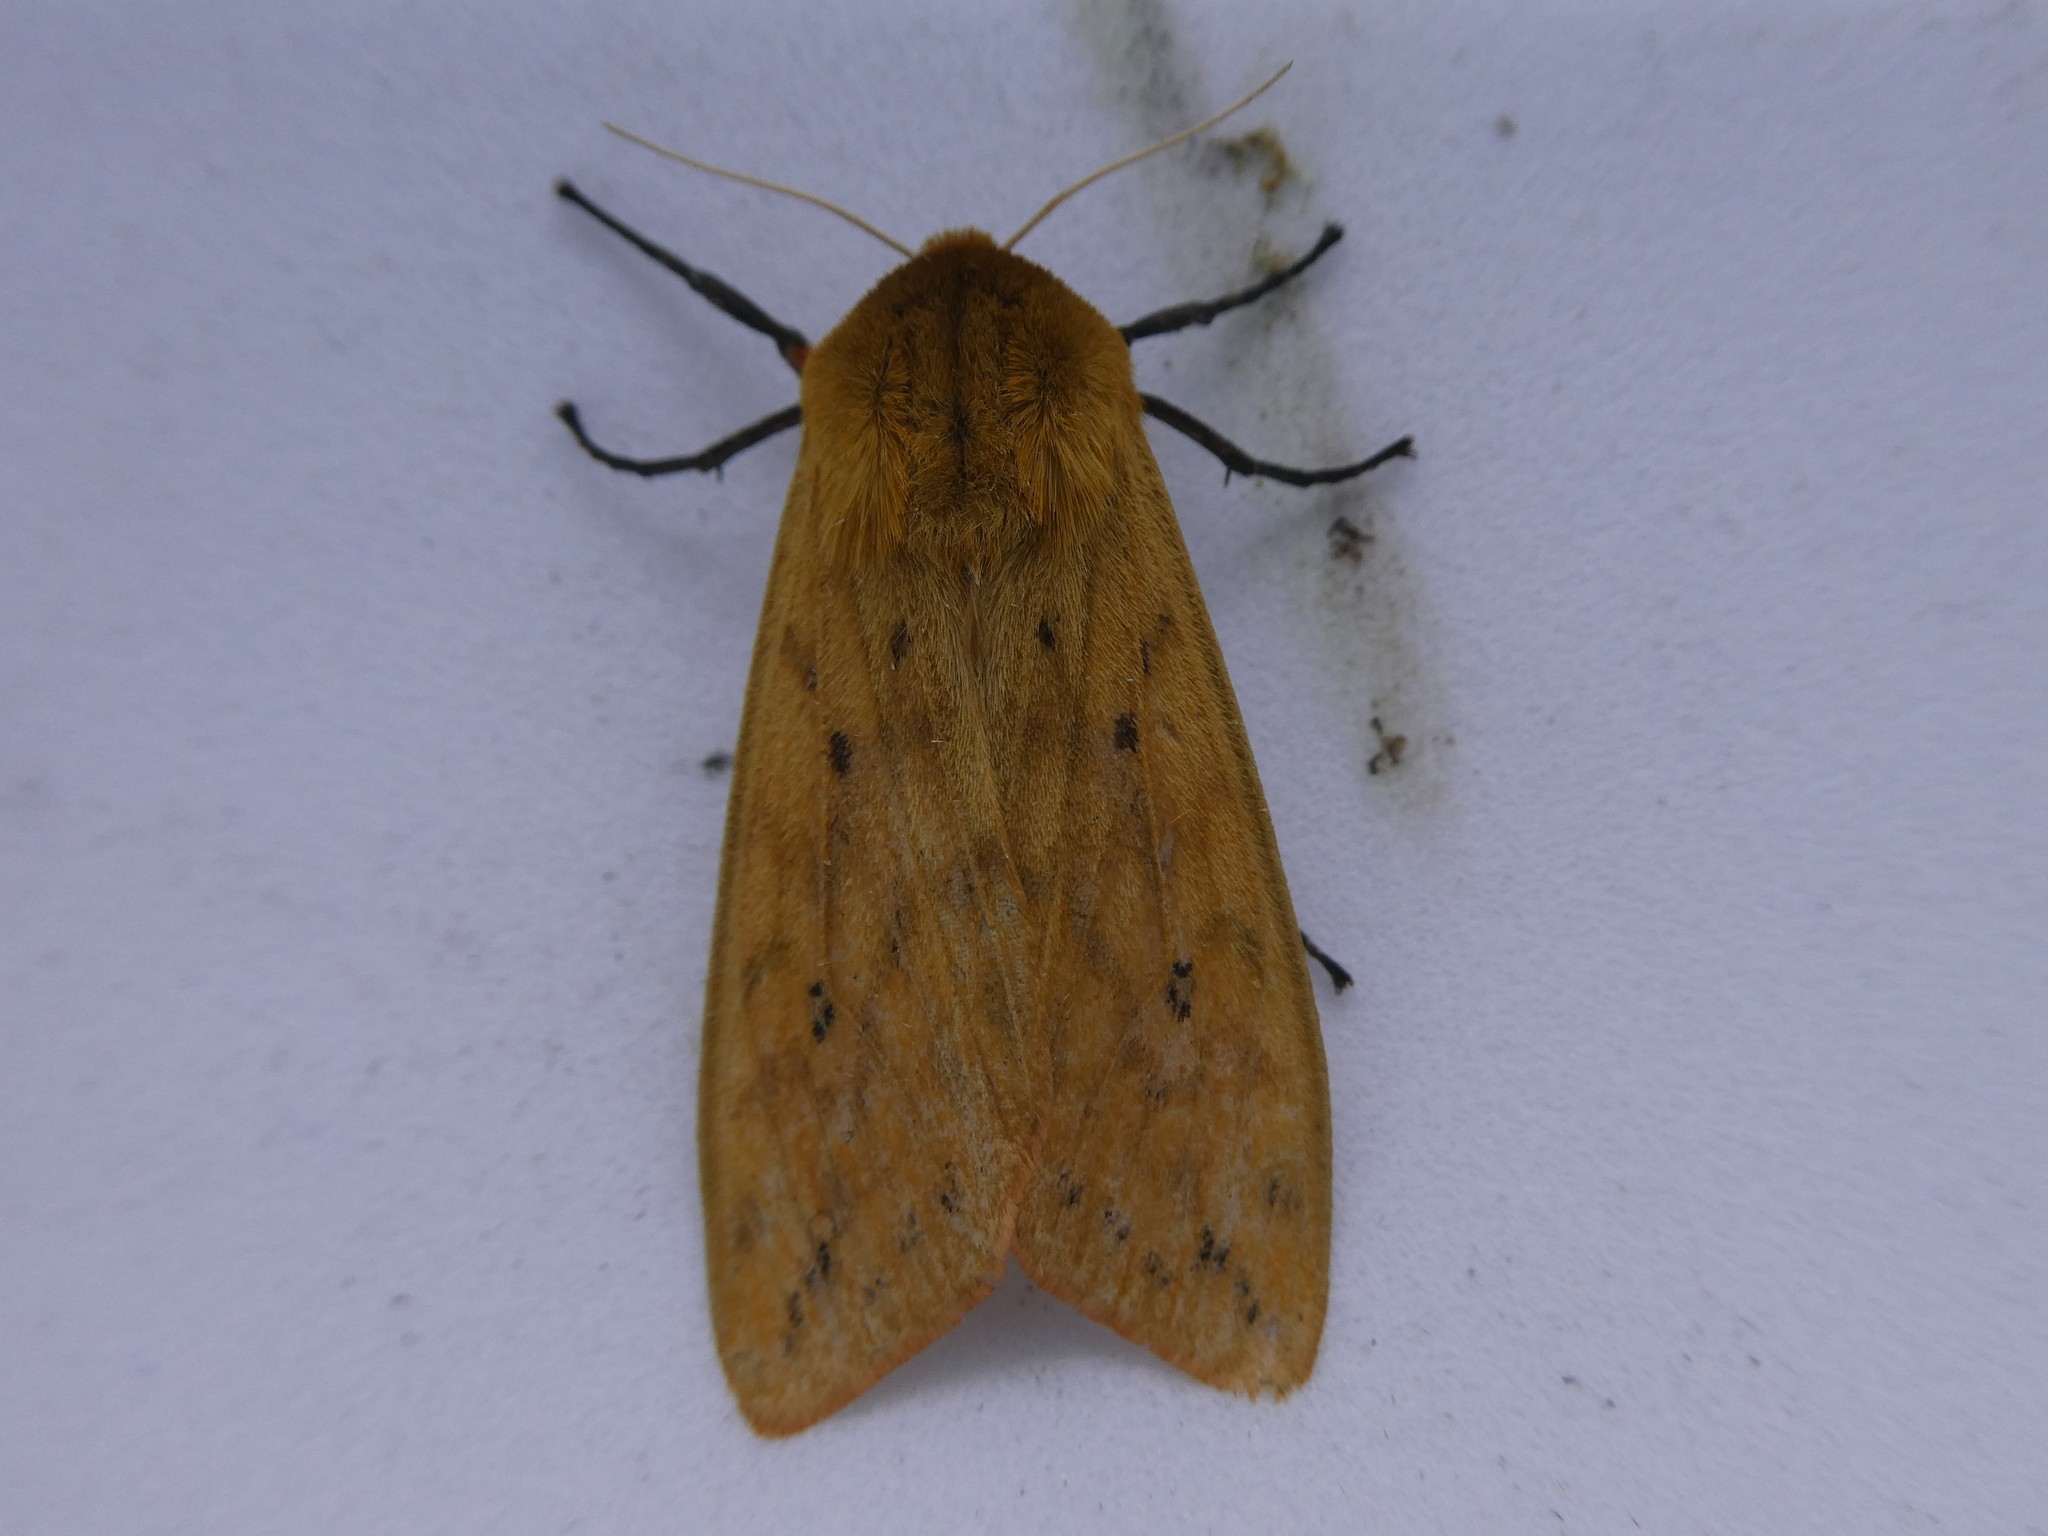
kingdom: Animalia
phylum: Arthropoda
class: Insecta
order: Lepidoptera
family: Erebidae
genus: Pyrrharctia
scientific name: Pyrrharctia isabella
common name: Isabella tiger moth
